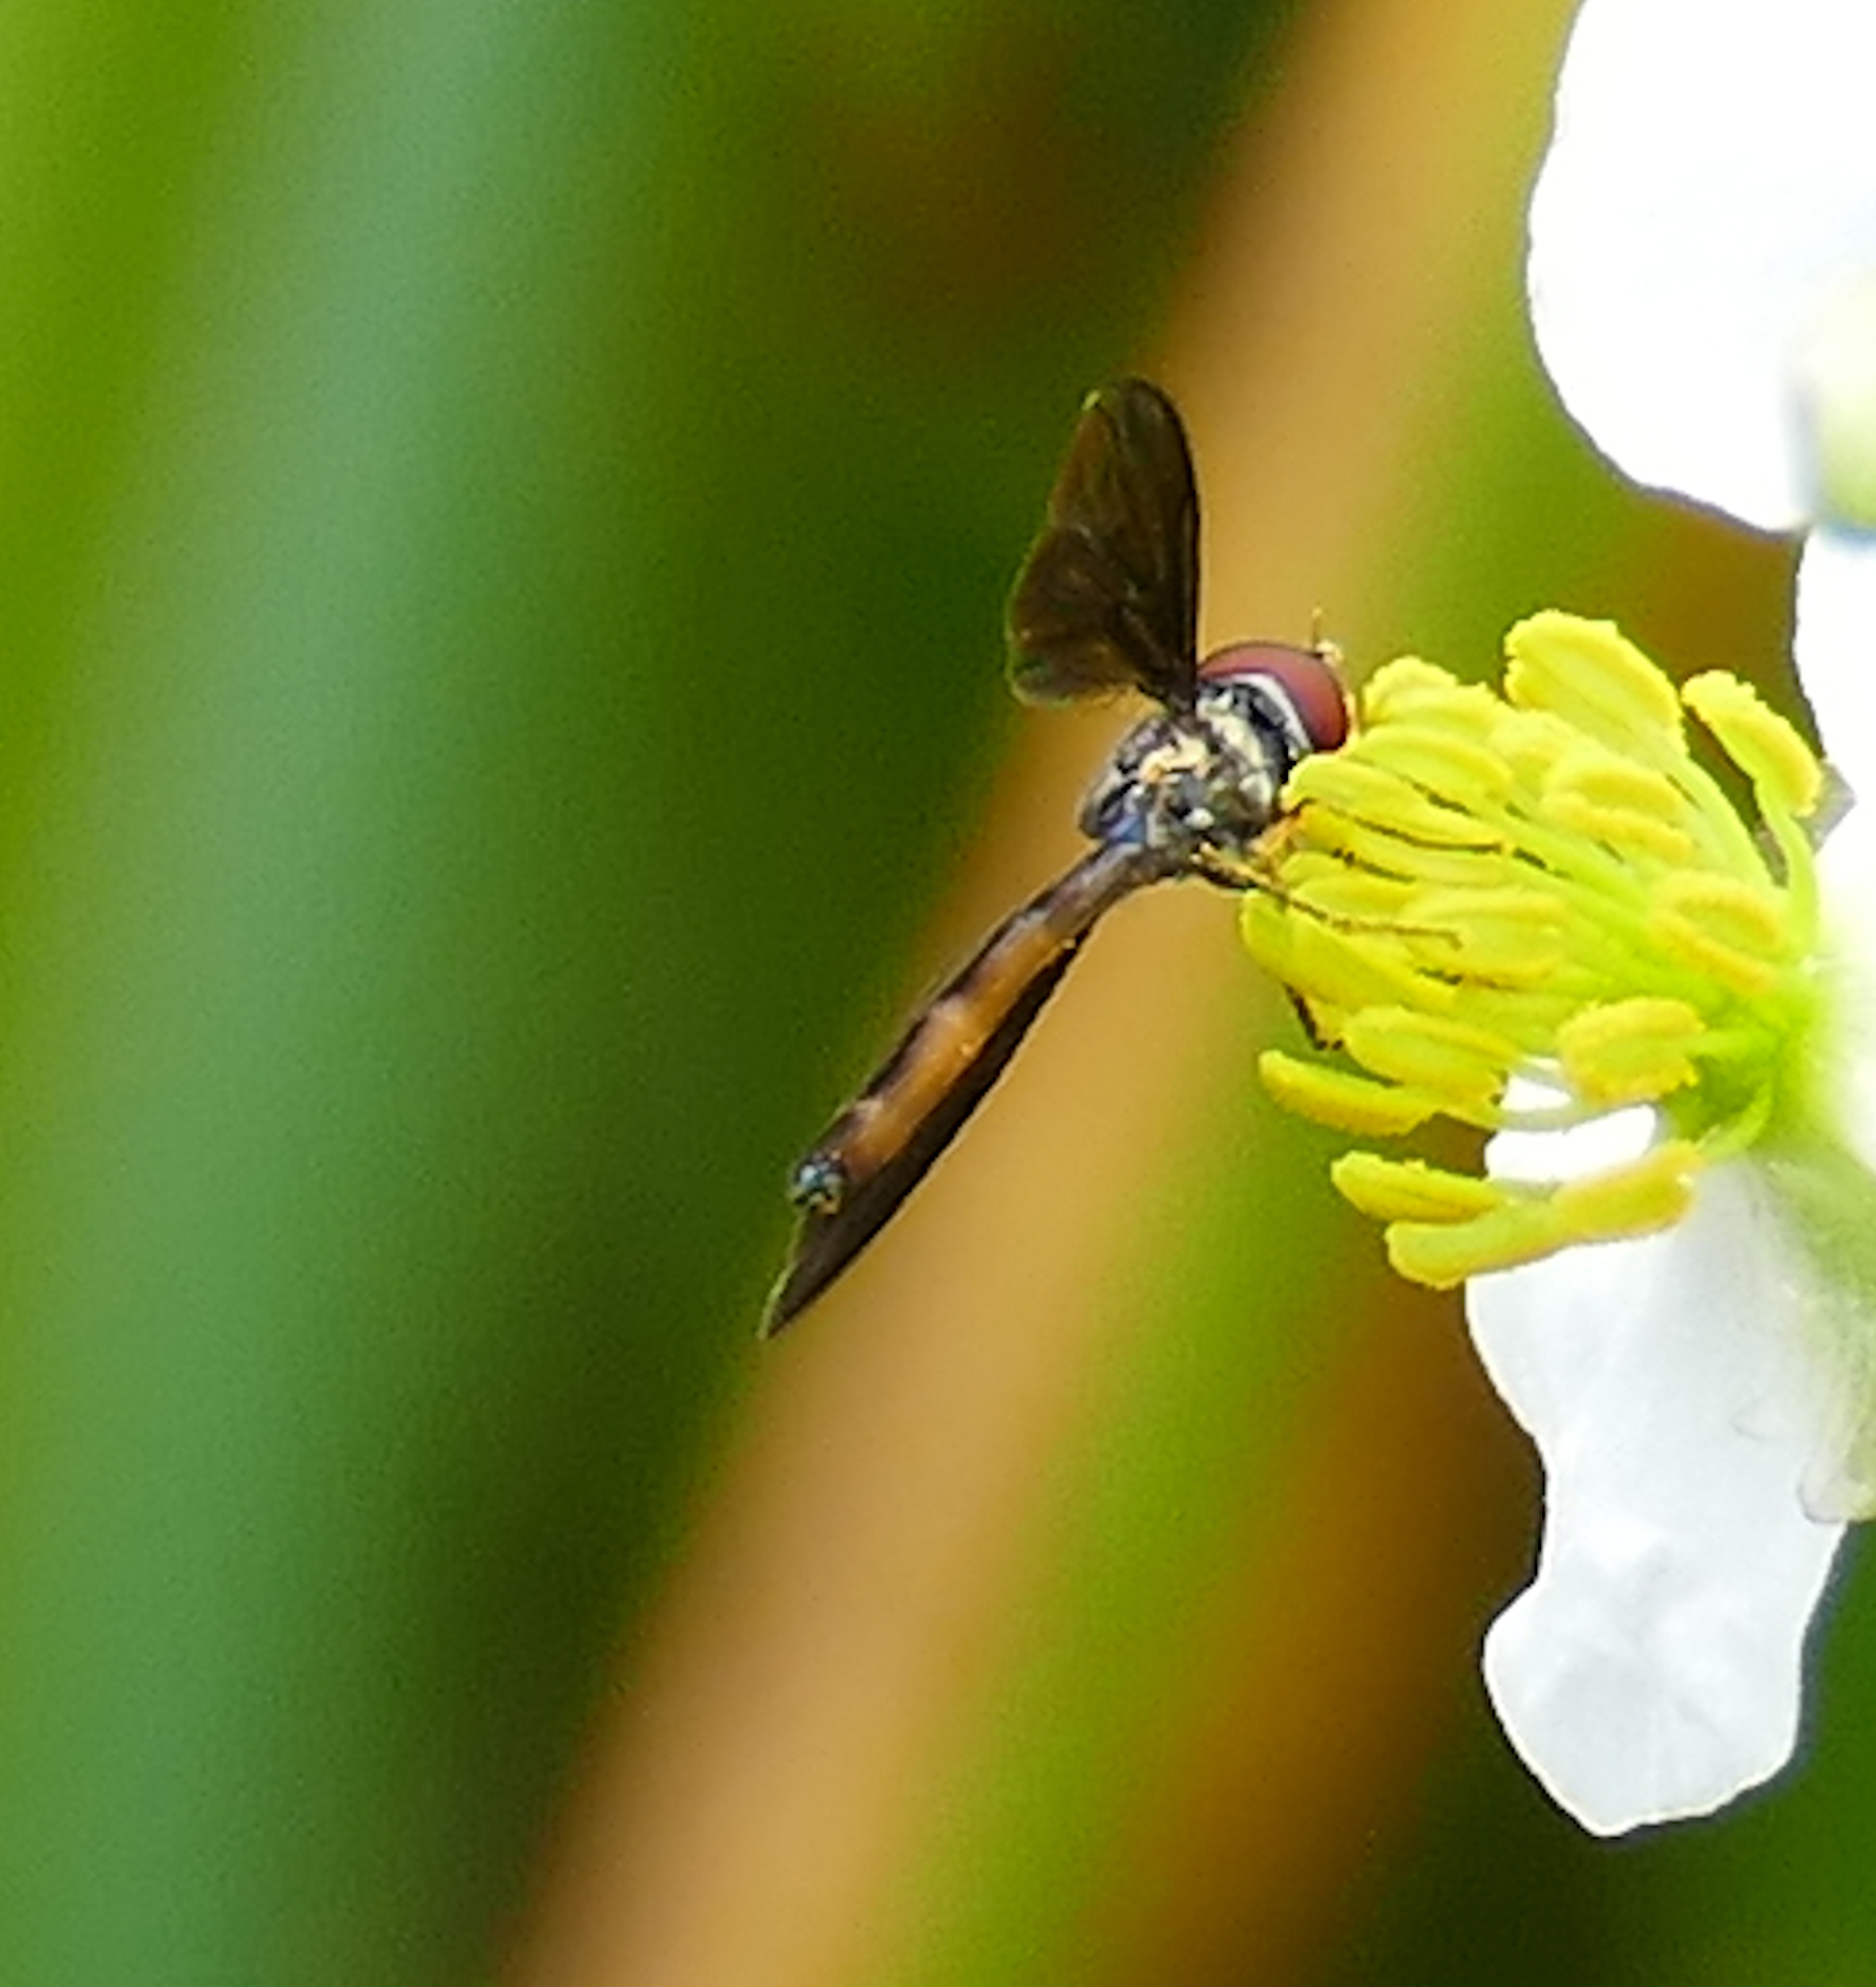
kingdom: Animalia
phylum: Arthropoda
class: Insecta
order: Diptera
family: Syrphidae
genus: Ocyptamus
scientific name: Ocyptamus fuscipennis
